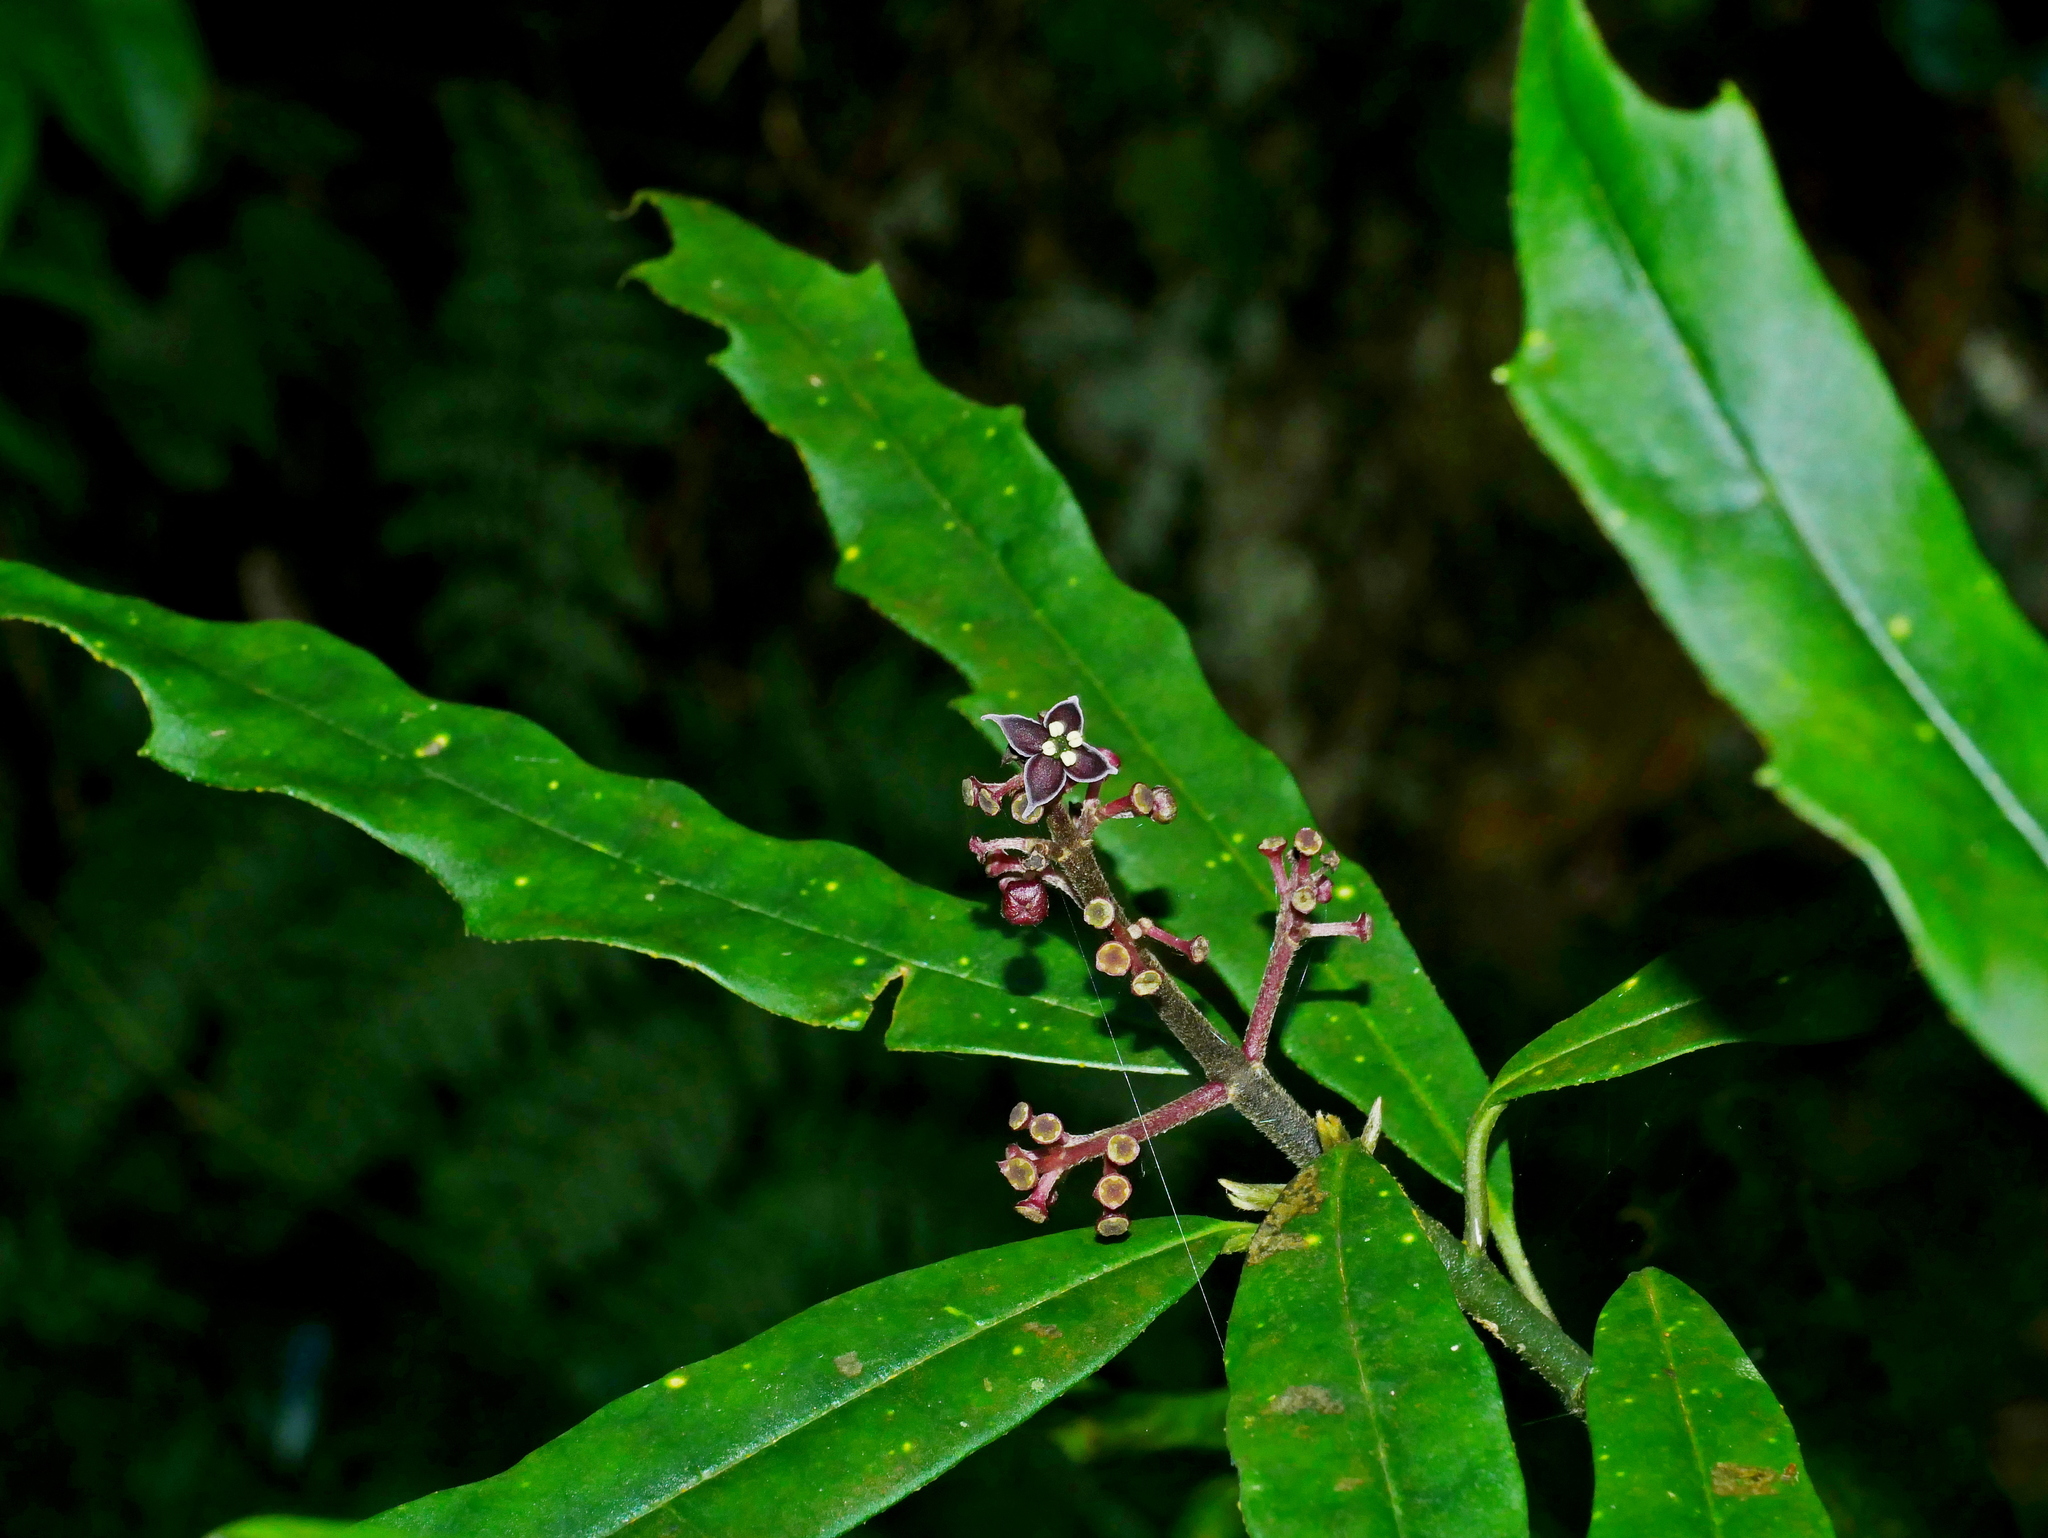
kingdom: Plantae
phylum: Tracheophyta
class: Magnoliopsida
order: Garryales
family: Garryaceae
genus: Aucuba
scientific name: Aucuba chinensis
